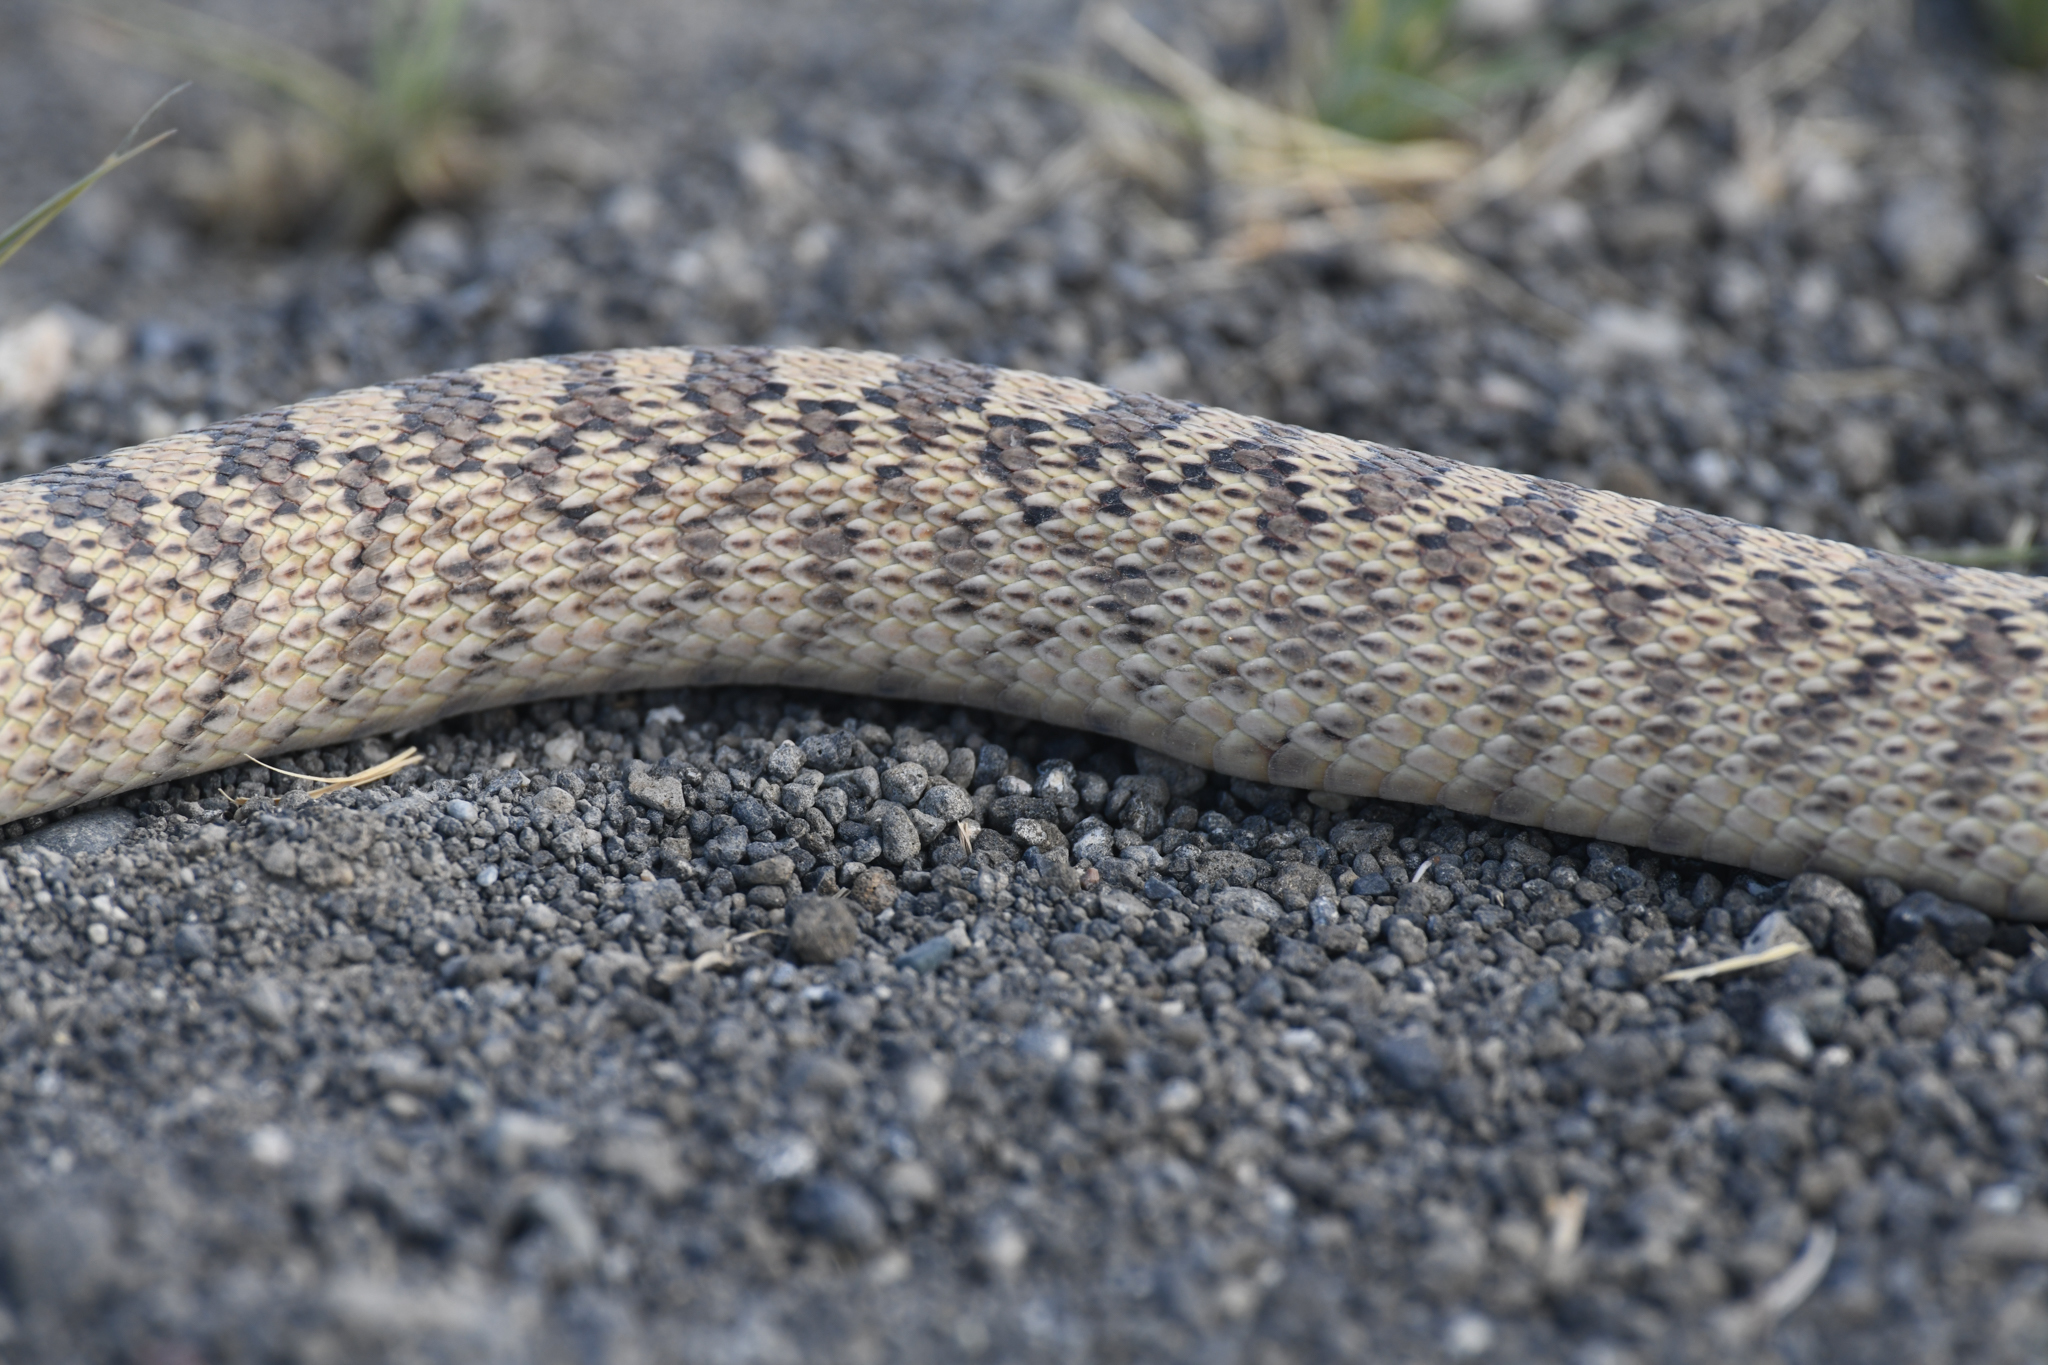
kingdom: Animalia
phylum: Chordata
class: Squamata
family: Colubridae
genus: Pituophis
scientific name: Pituophis catenifer
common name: Gopher snake
